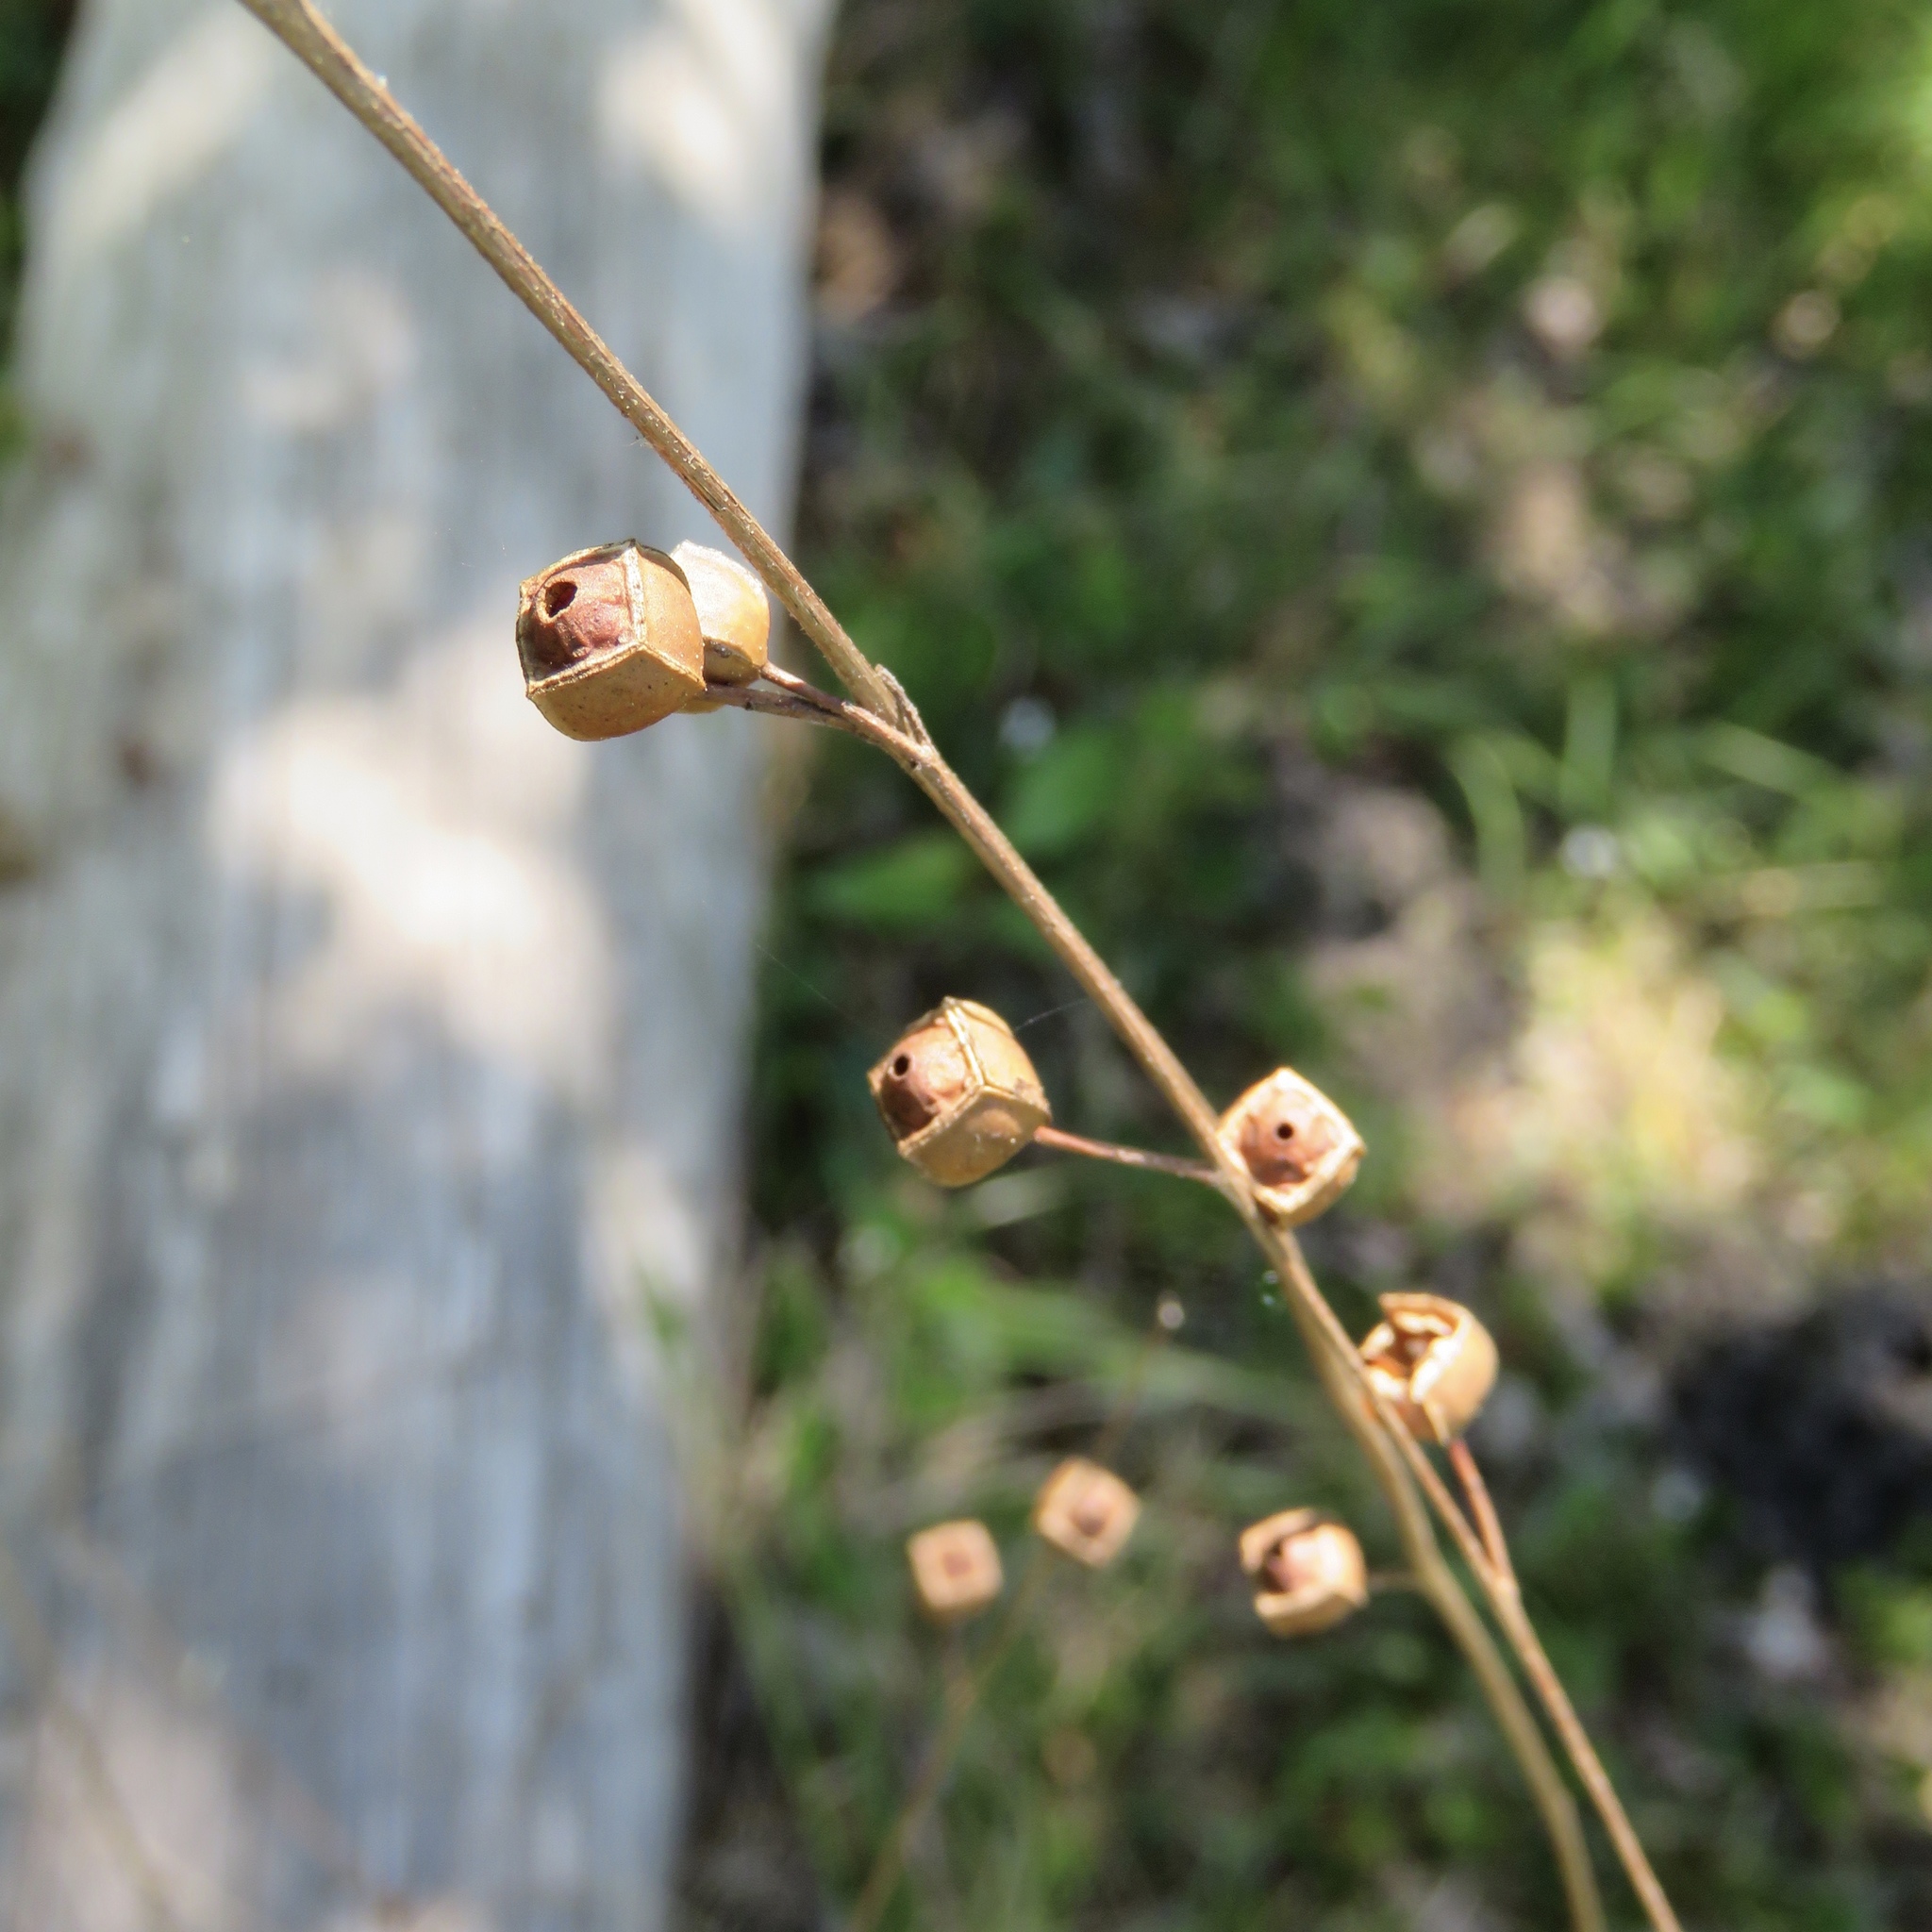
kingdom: Plantae
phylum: Tracheophyta
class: Magnoliopsida
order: Myrtales
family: Onagraceae
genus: Ludwigia
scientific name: Ludwigia alternifolia
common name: Rattlebox
